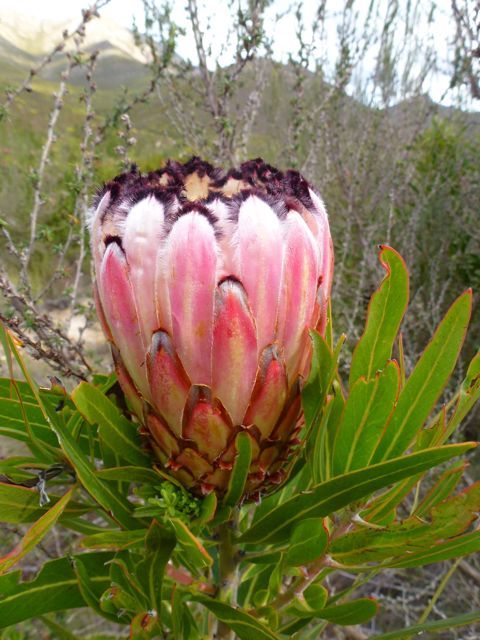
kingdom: Plantae
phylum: Tracheophyta
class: Magnoliopsida
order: Proteales
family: Proteaceae
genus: Protea
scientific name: Protea neriifolia
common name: Blue sugarbush
